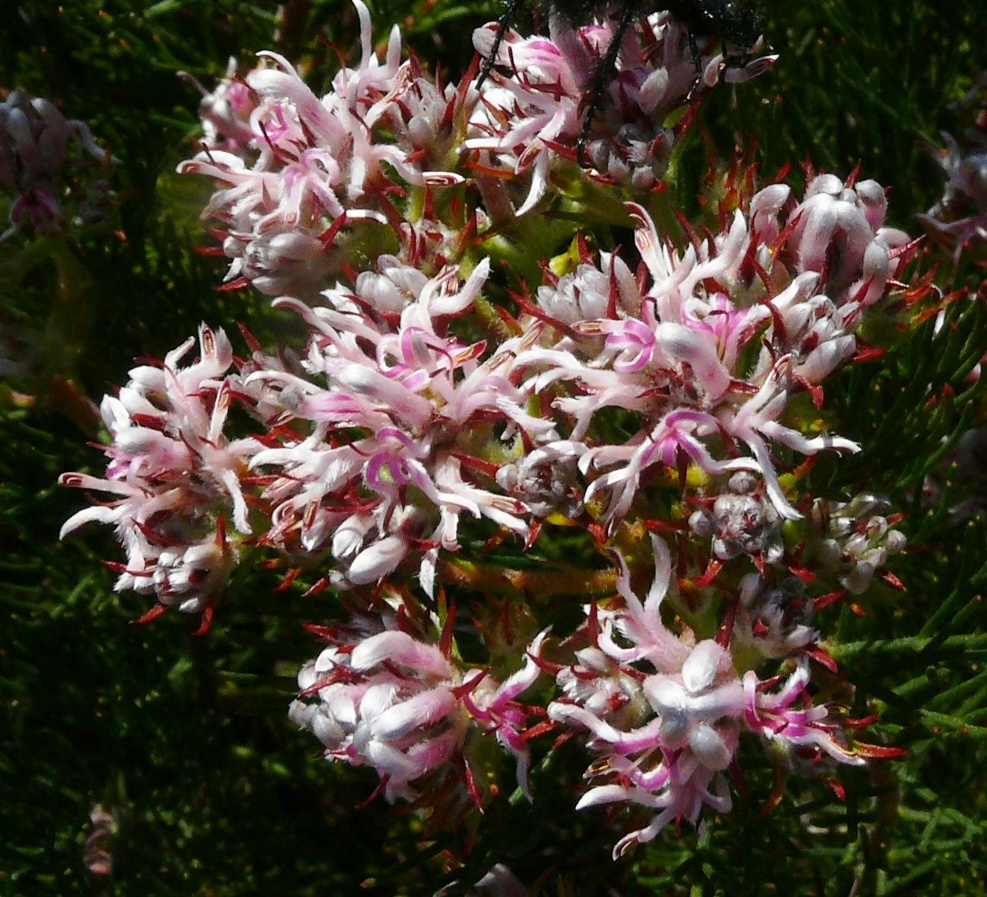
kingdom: Animalia
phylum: Arthropoda
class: Insecta
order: Coleoptera
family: Scarabaeidae
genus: Anisonyx
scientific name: Anisonyx ditus
